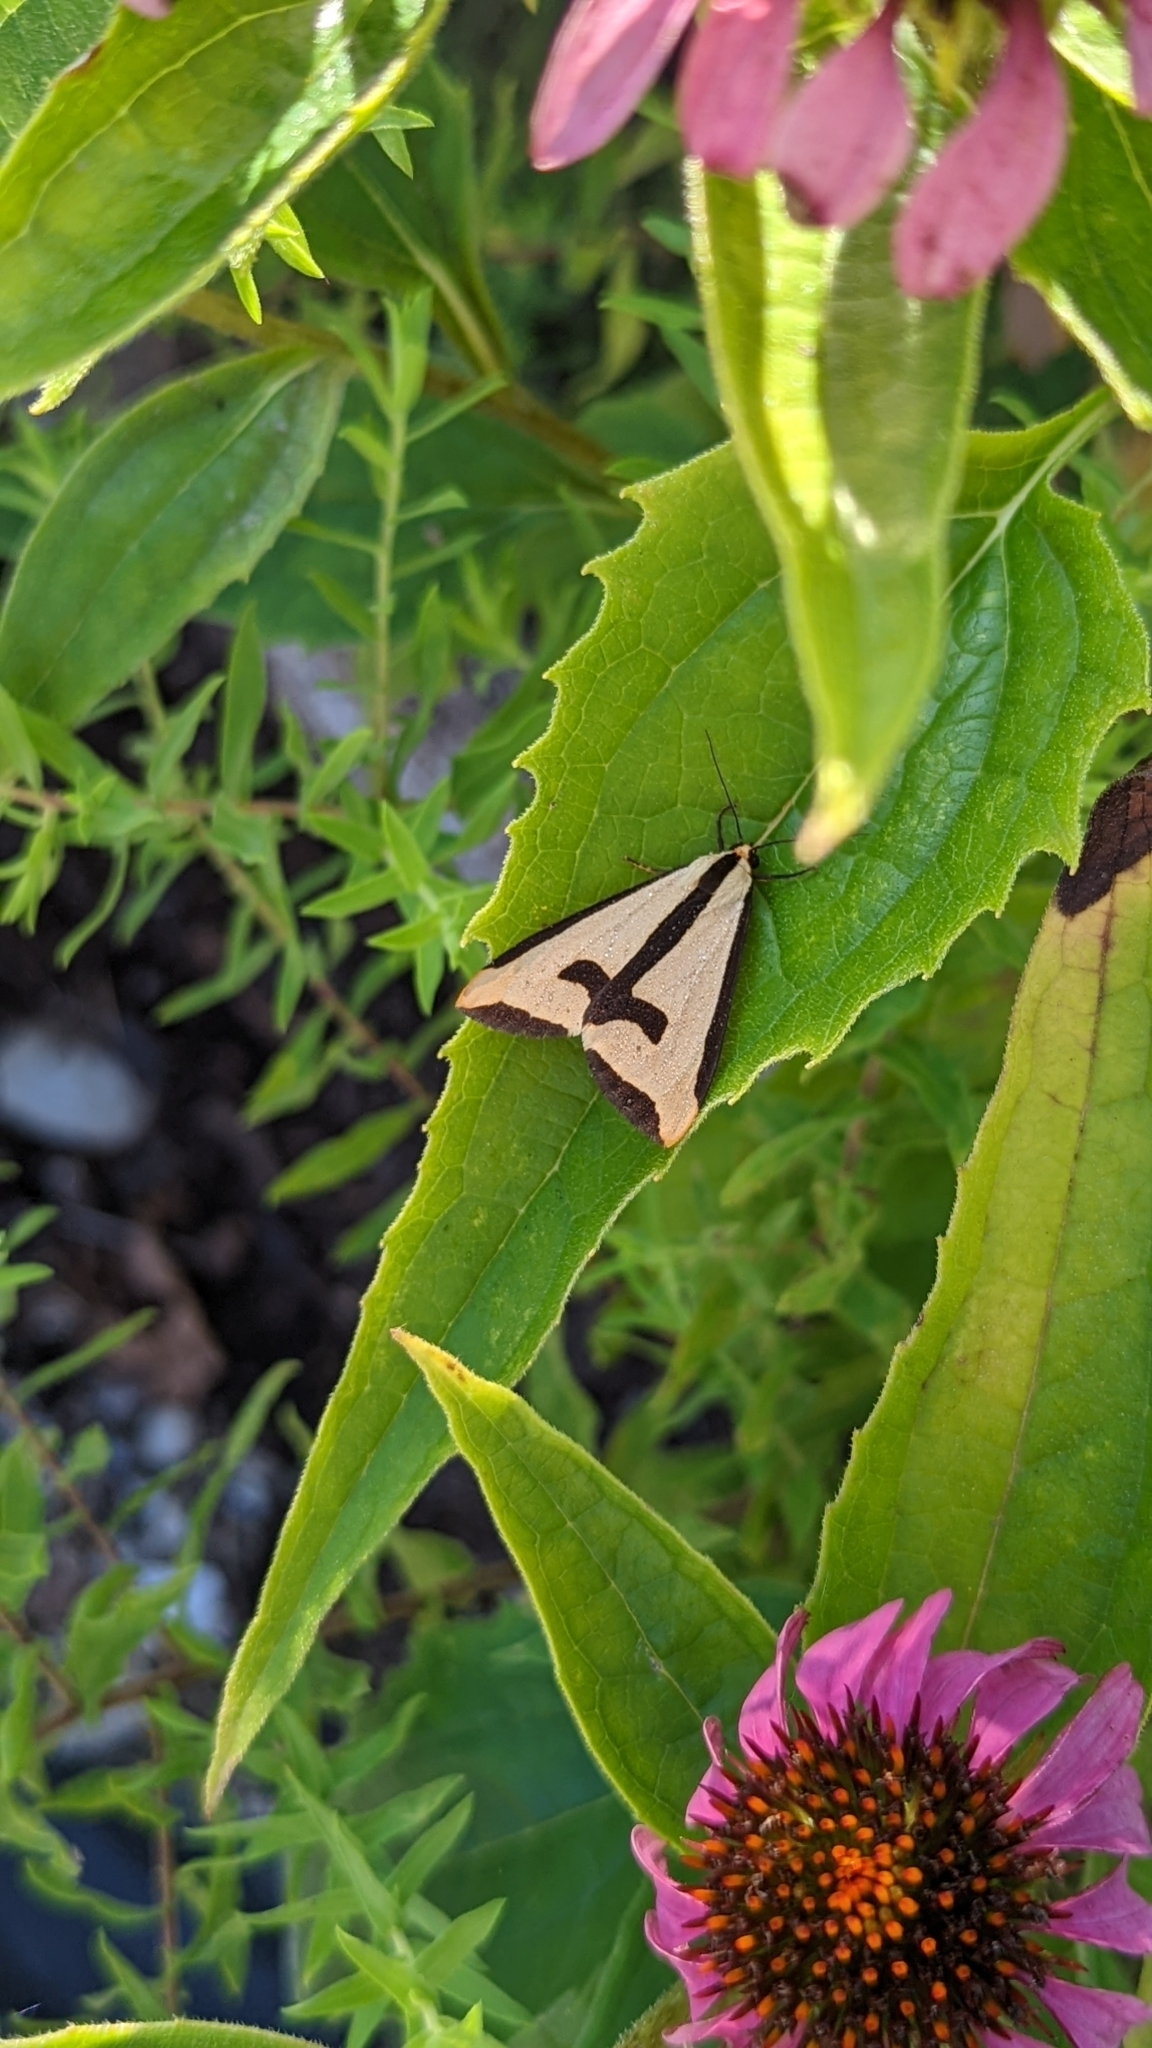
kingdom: Animalia
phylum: Arthropoda
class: Insecta
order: Lepidoptera
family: Erebidae
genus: Haploa
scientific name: Haploa clymene
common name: Clymene moth
